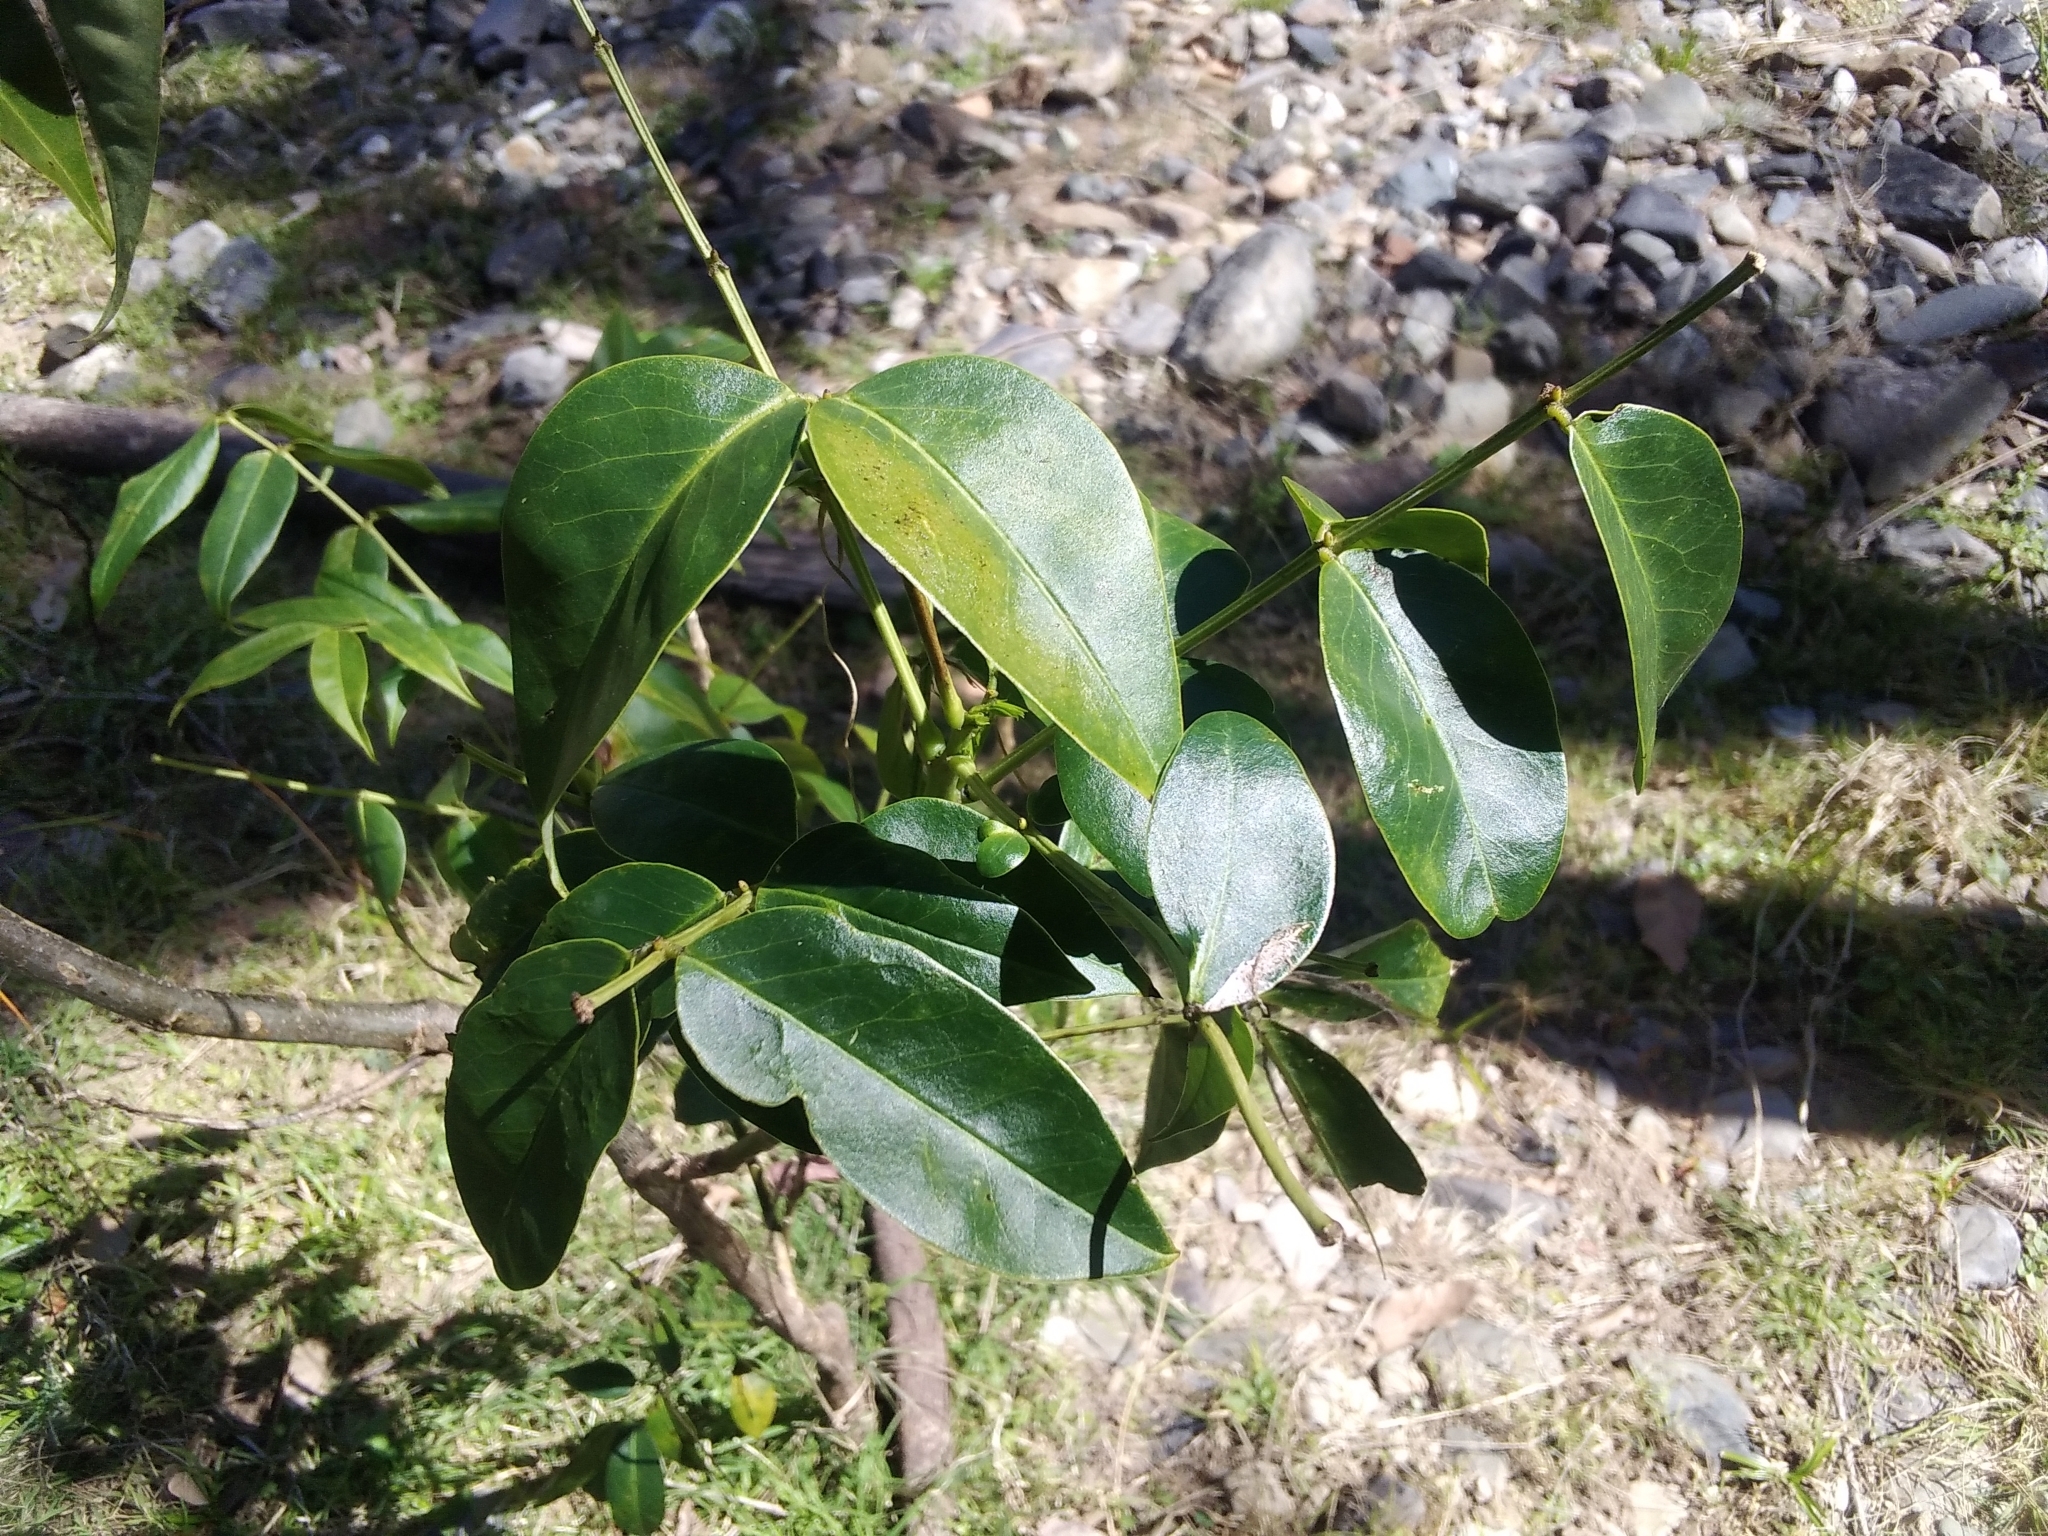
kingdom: Plantae
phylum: Tracheophyta
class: Magnoliopsida
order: Fabales
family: Fabaceae
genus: Senna
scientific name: Senna septemtrionalis
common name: Arsenic bush
